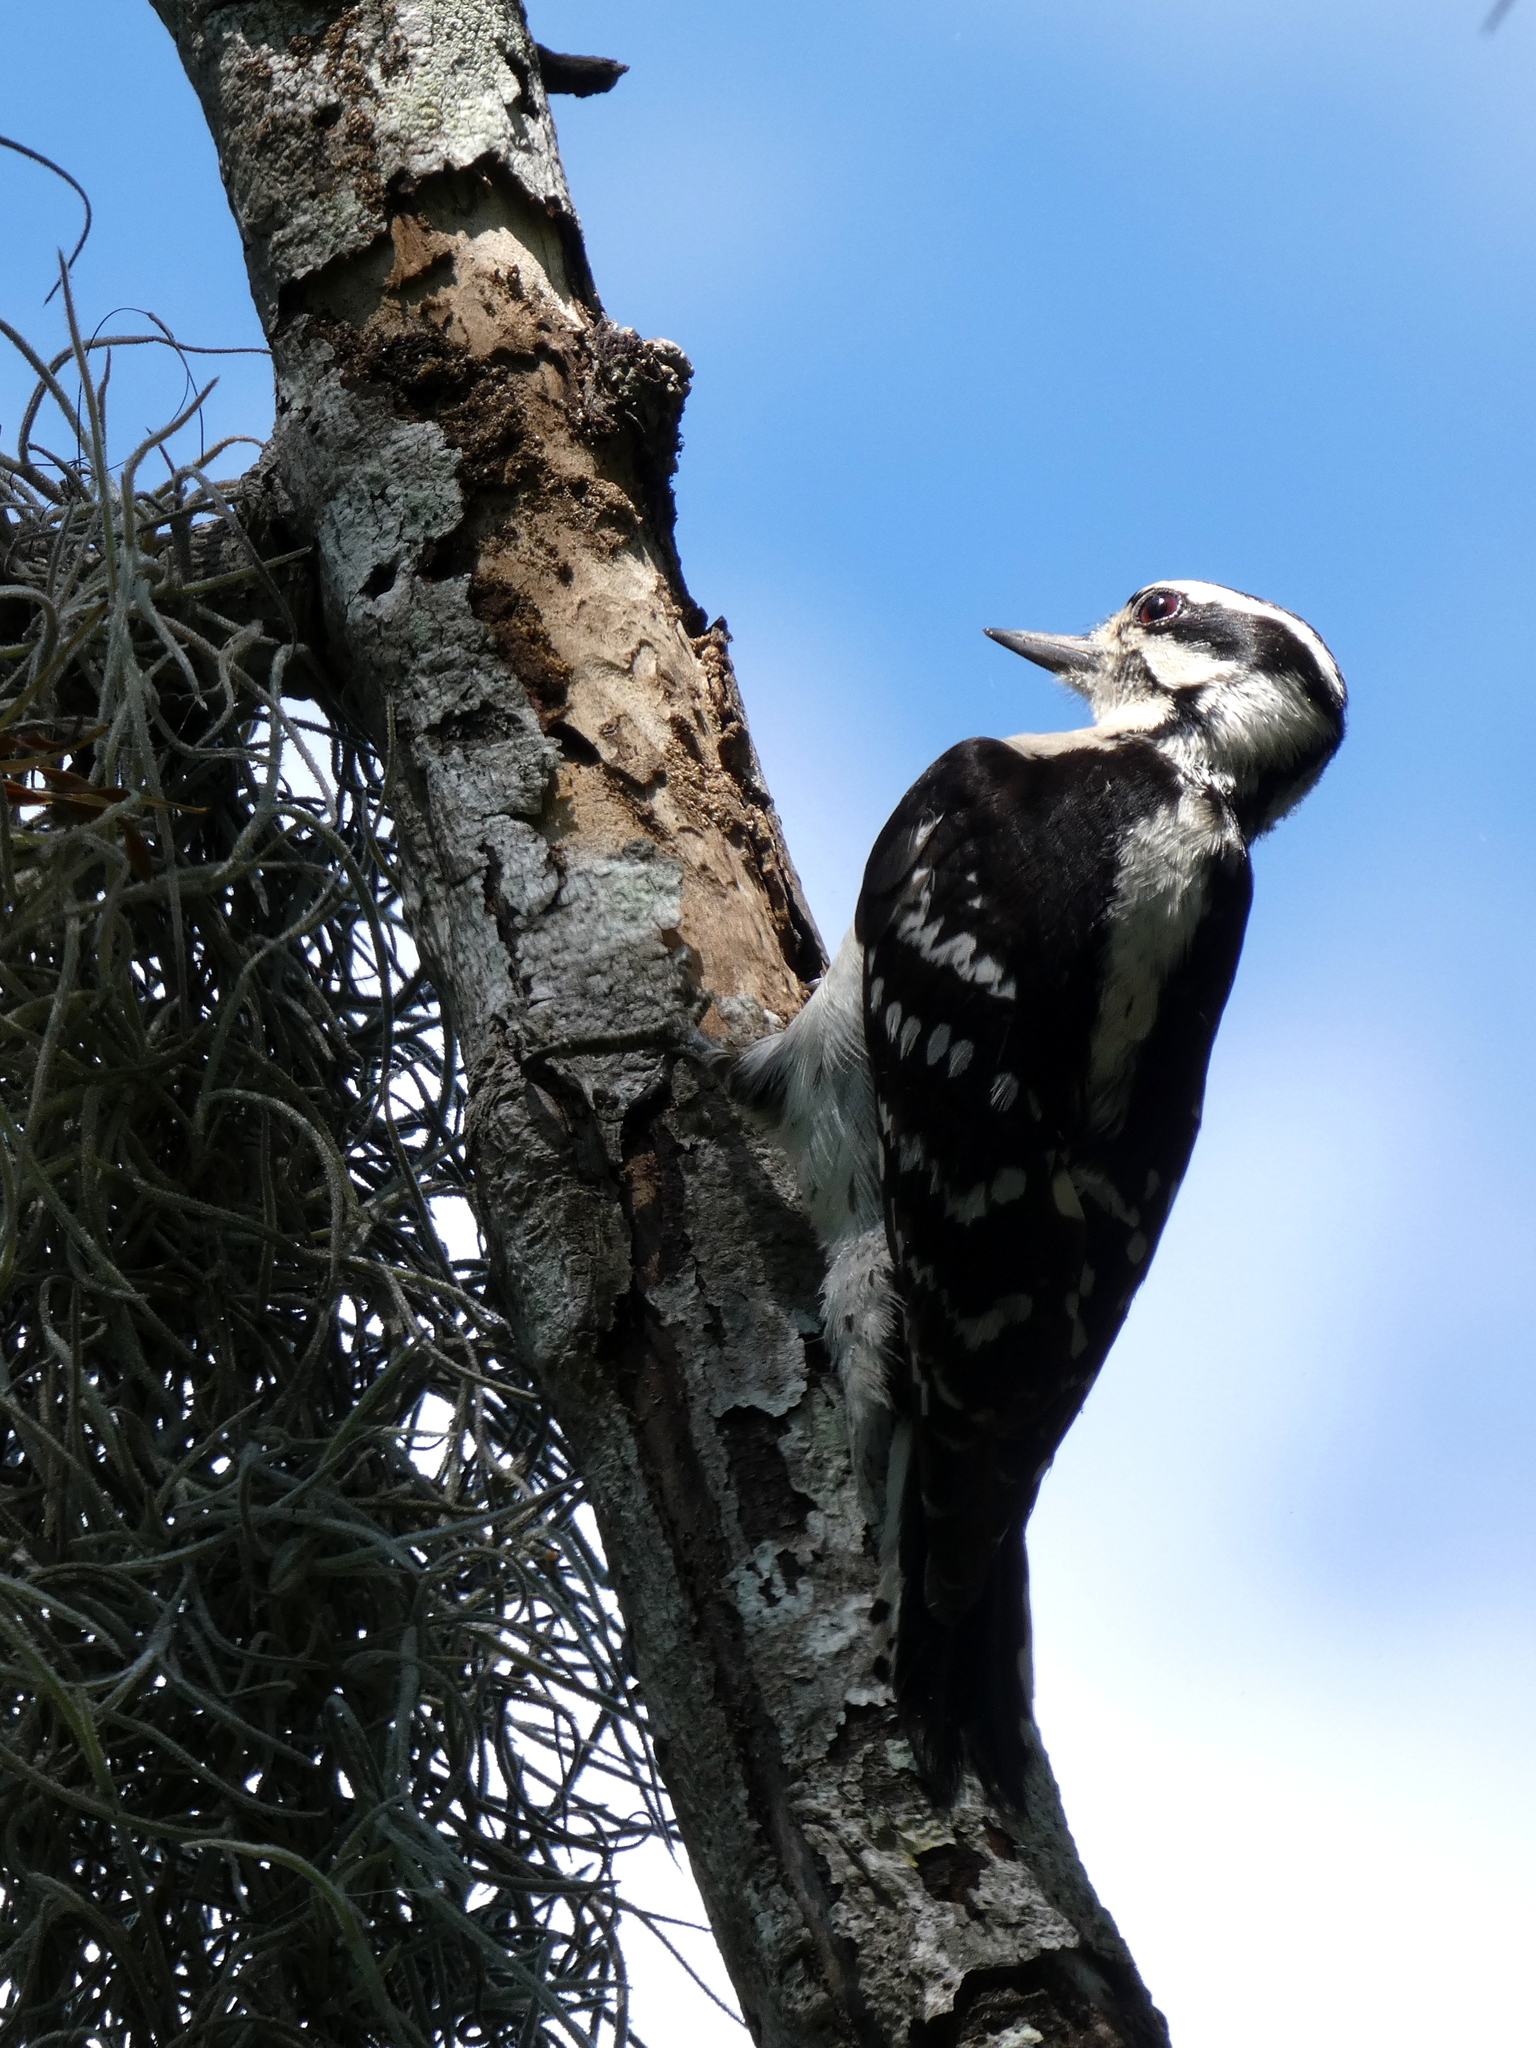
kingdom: Animalia
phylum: Chordata
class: Aves
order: Piciformes
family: Picidae
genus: Dryobates
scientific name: Dryobates pubescens
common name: Downy woodpecker
